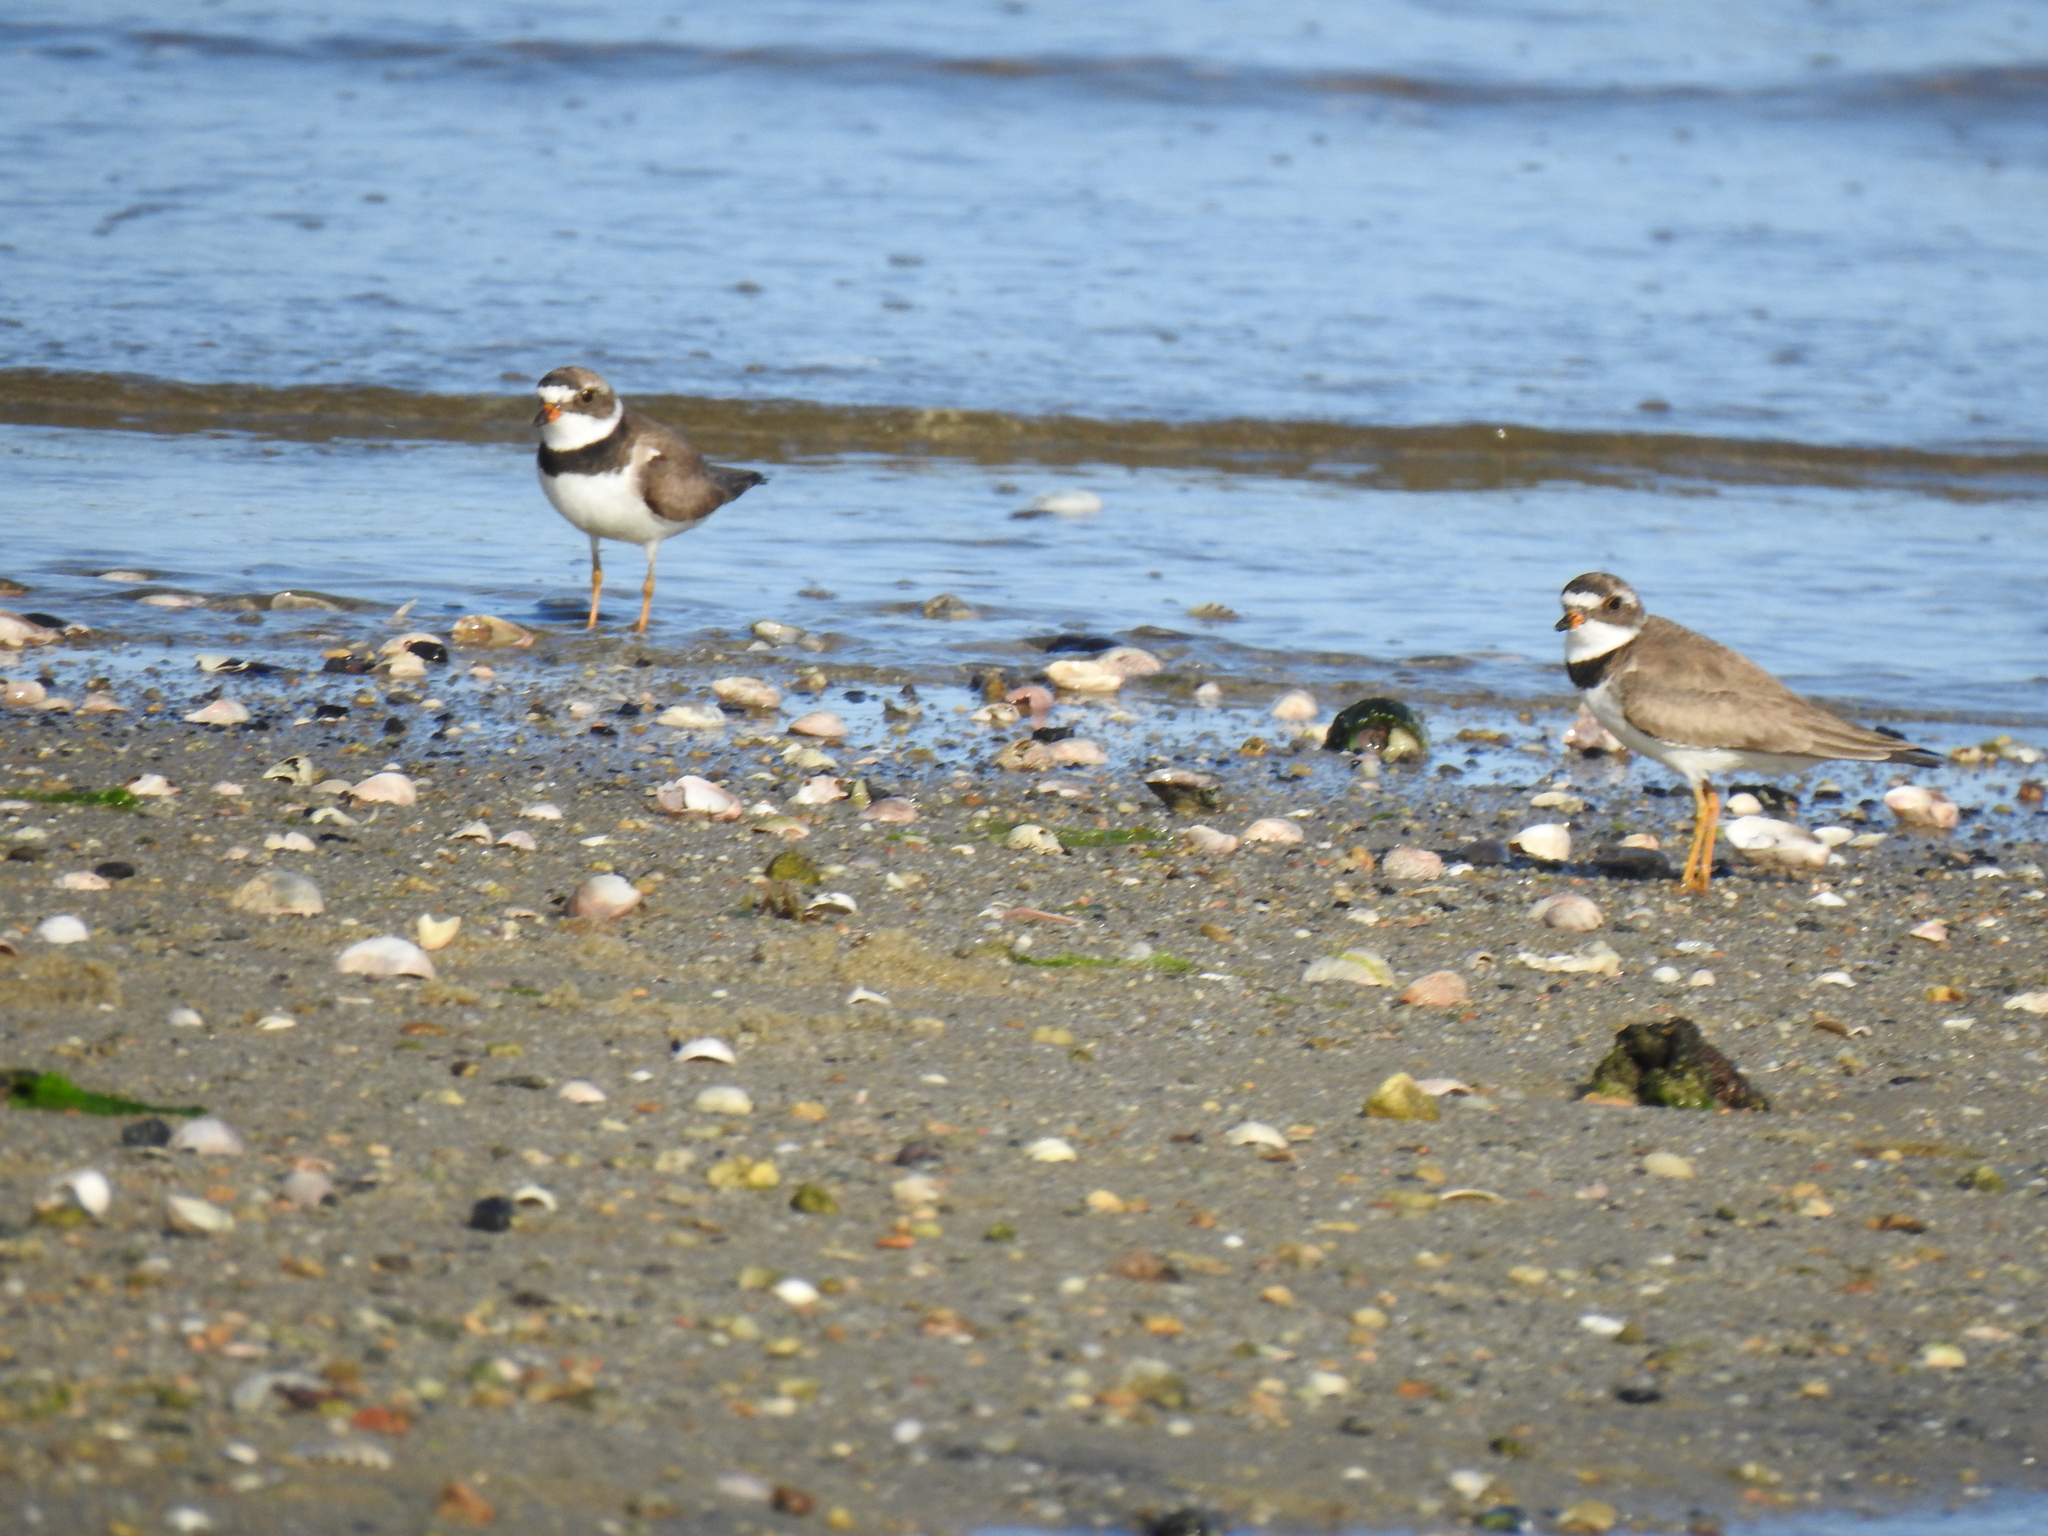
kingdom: Animalia
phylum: Chordata
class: Aves
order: Charadriiformes
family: Charadriidae
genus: Charadrius
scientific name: Charadrius semipalmatus
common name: Semipalmated plover
